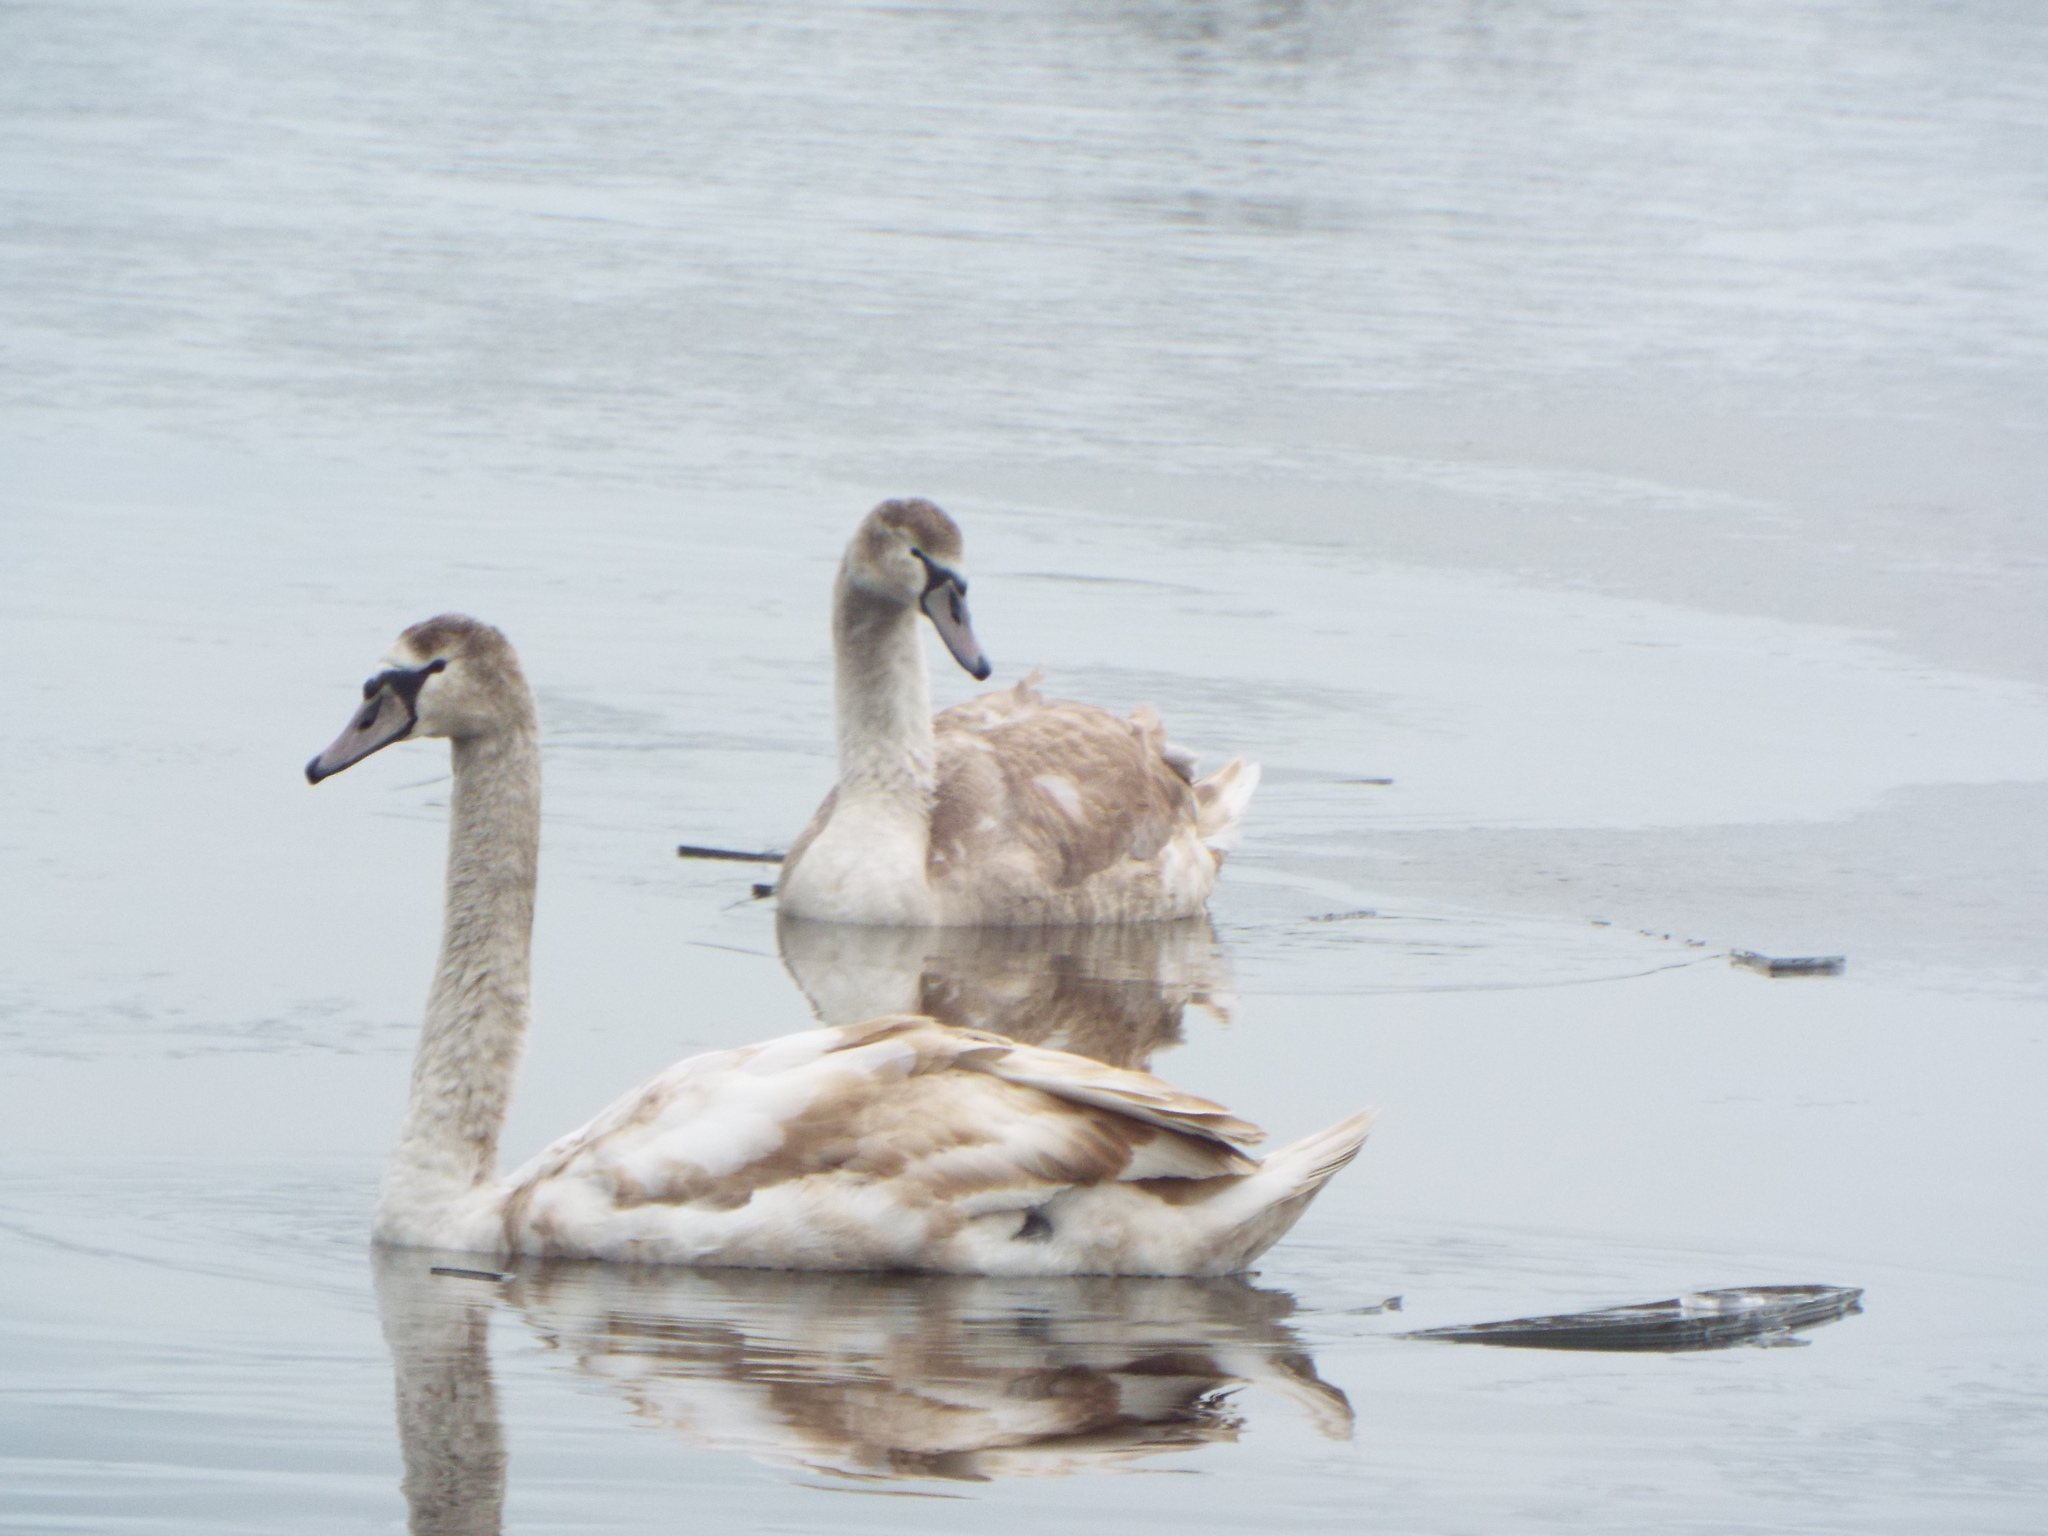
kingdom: Animalia
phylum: Chordata
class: Aves
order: Anseriformes
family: Anatidae
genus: Cygnus
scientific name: Cygnus olor
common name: Mute swan
